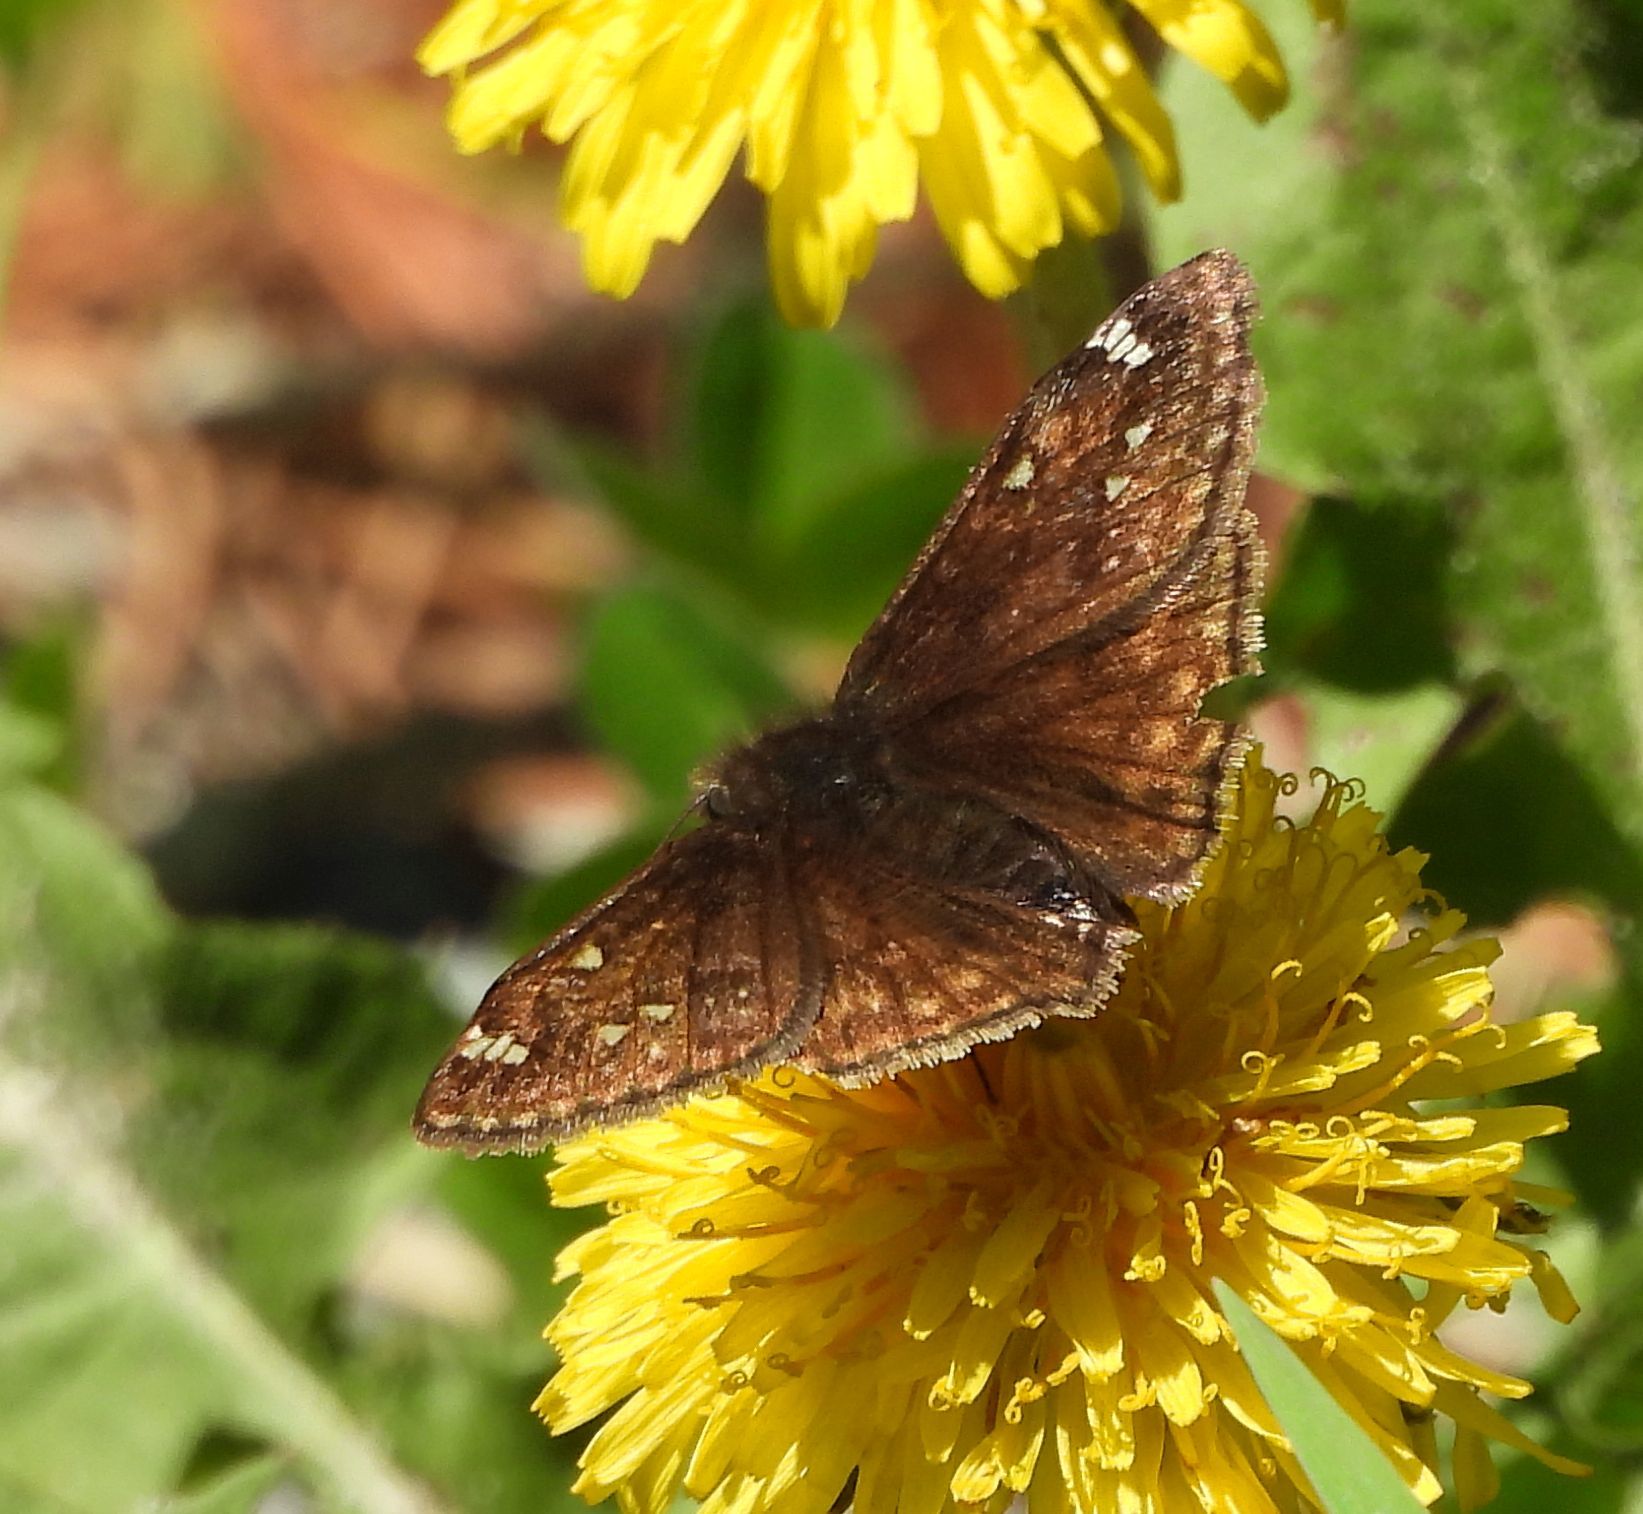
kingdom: Animalia
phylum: Arthropoda
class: Insecta
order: Lepidoptera
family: Hesperiidae
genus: Erynnis
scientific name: Erynnis juvenalis
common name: Juvenal's duskywing
